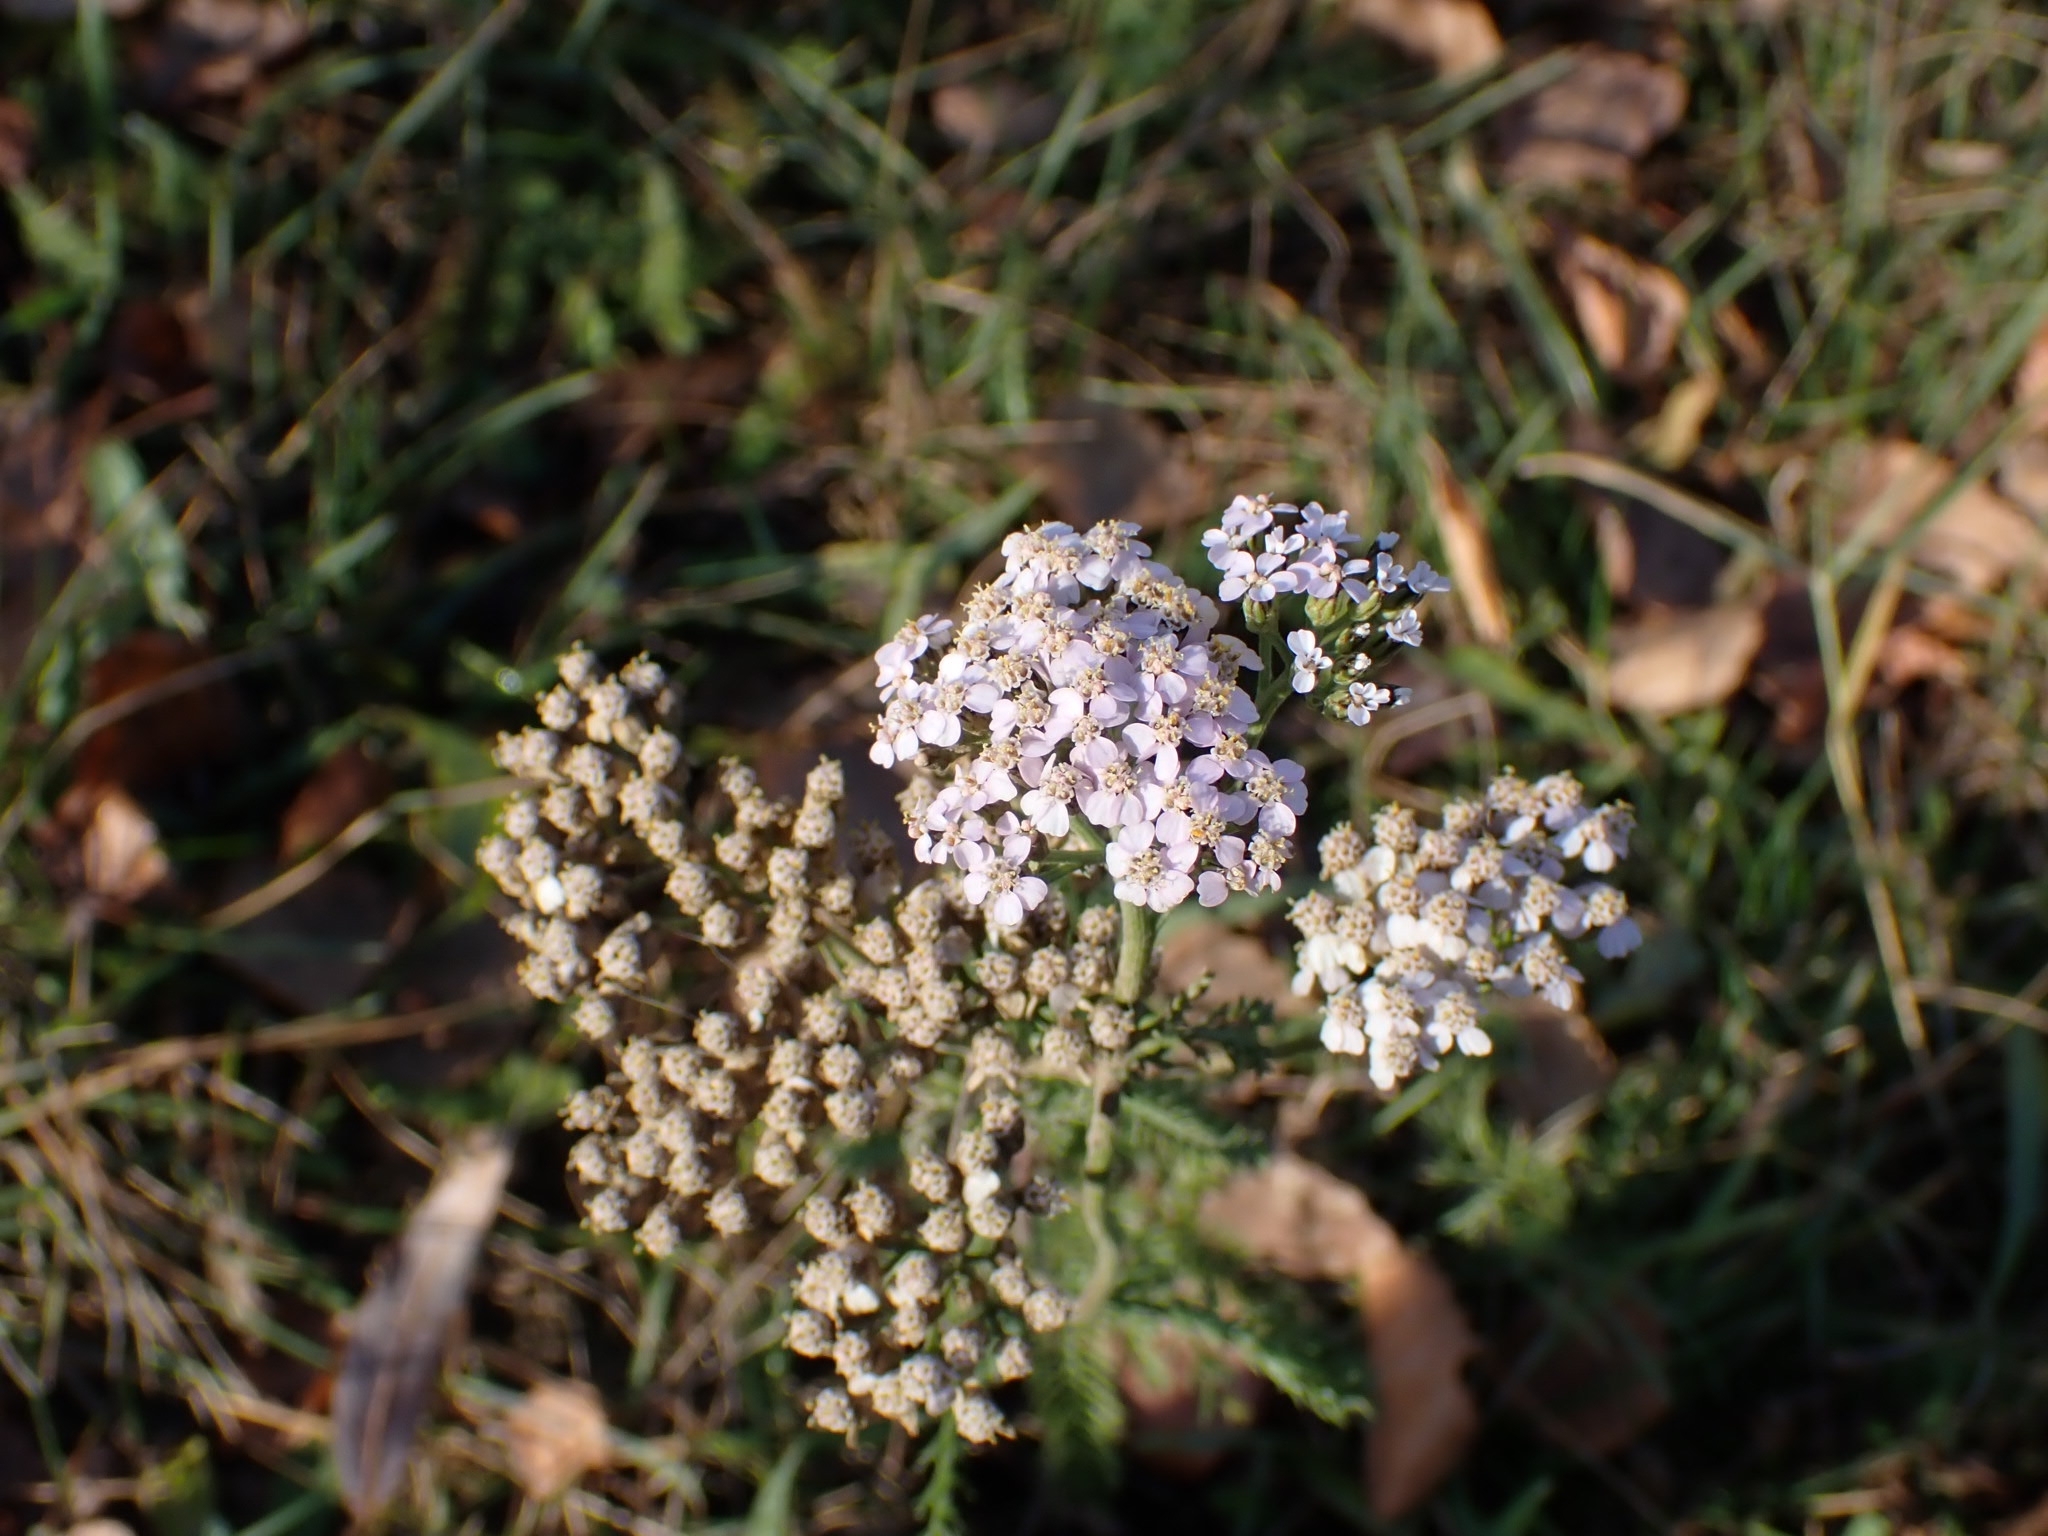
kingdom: Plantae
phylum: Tracheophyta
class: Magnoliopsida
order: Asterales
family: Asteraceae
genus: Achillea
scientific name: Achillea asiatica
